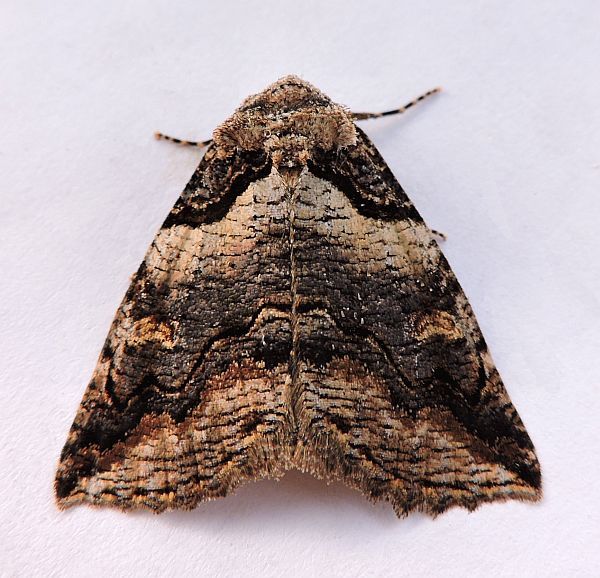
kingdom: Animalia
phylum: Arthropoda
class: Insecta
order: Lepidoptera
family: Erebidae
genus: Zale
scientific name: Zale intenta
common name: Intent zale moth
